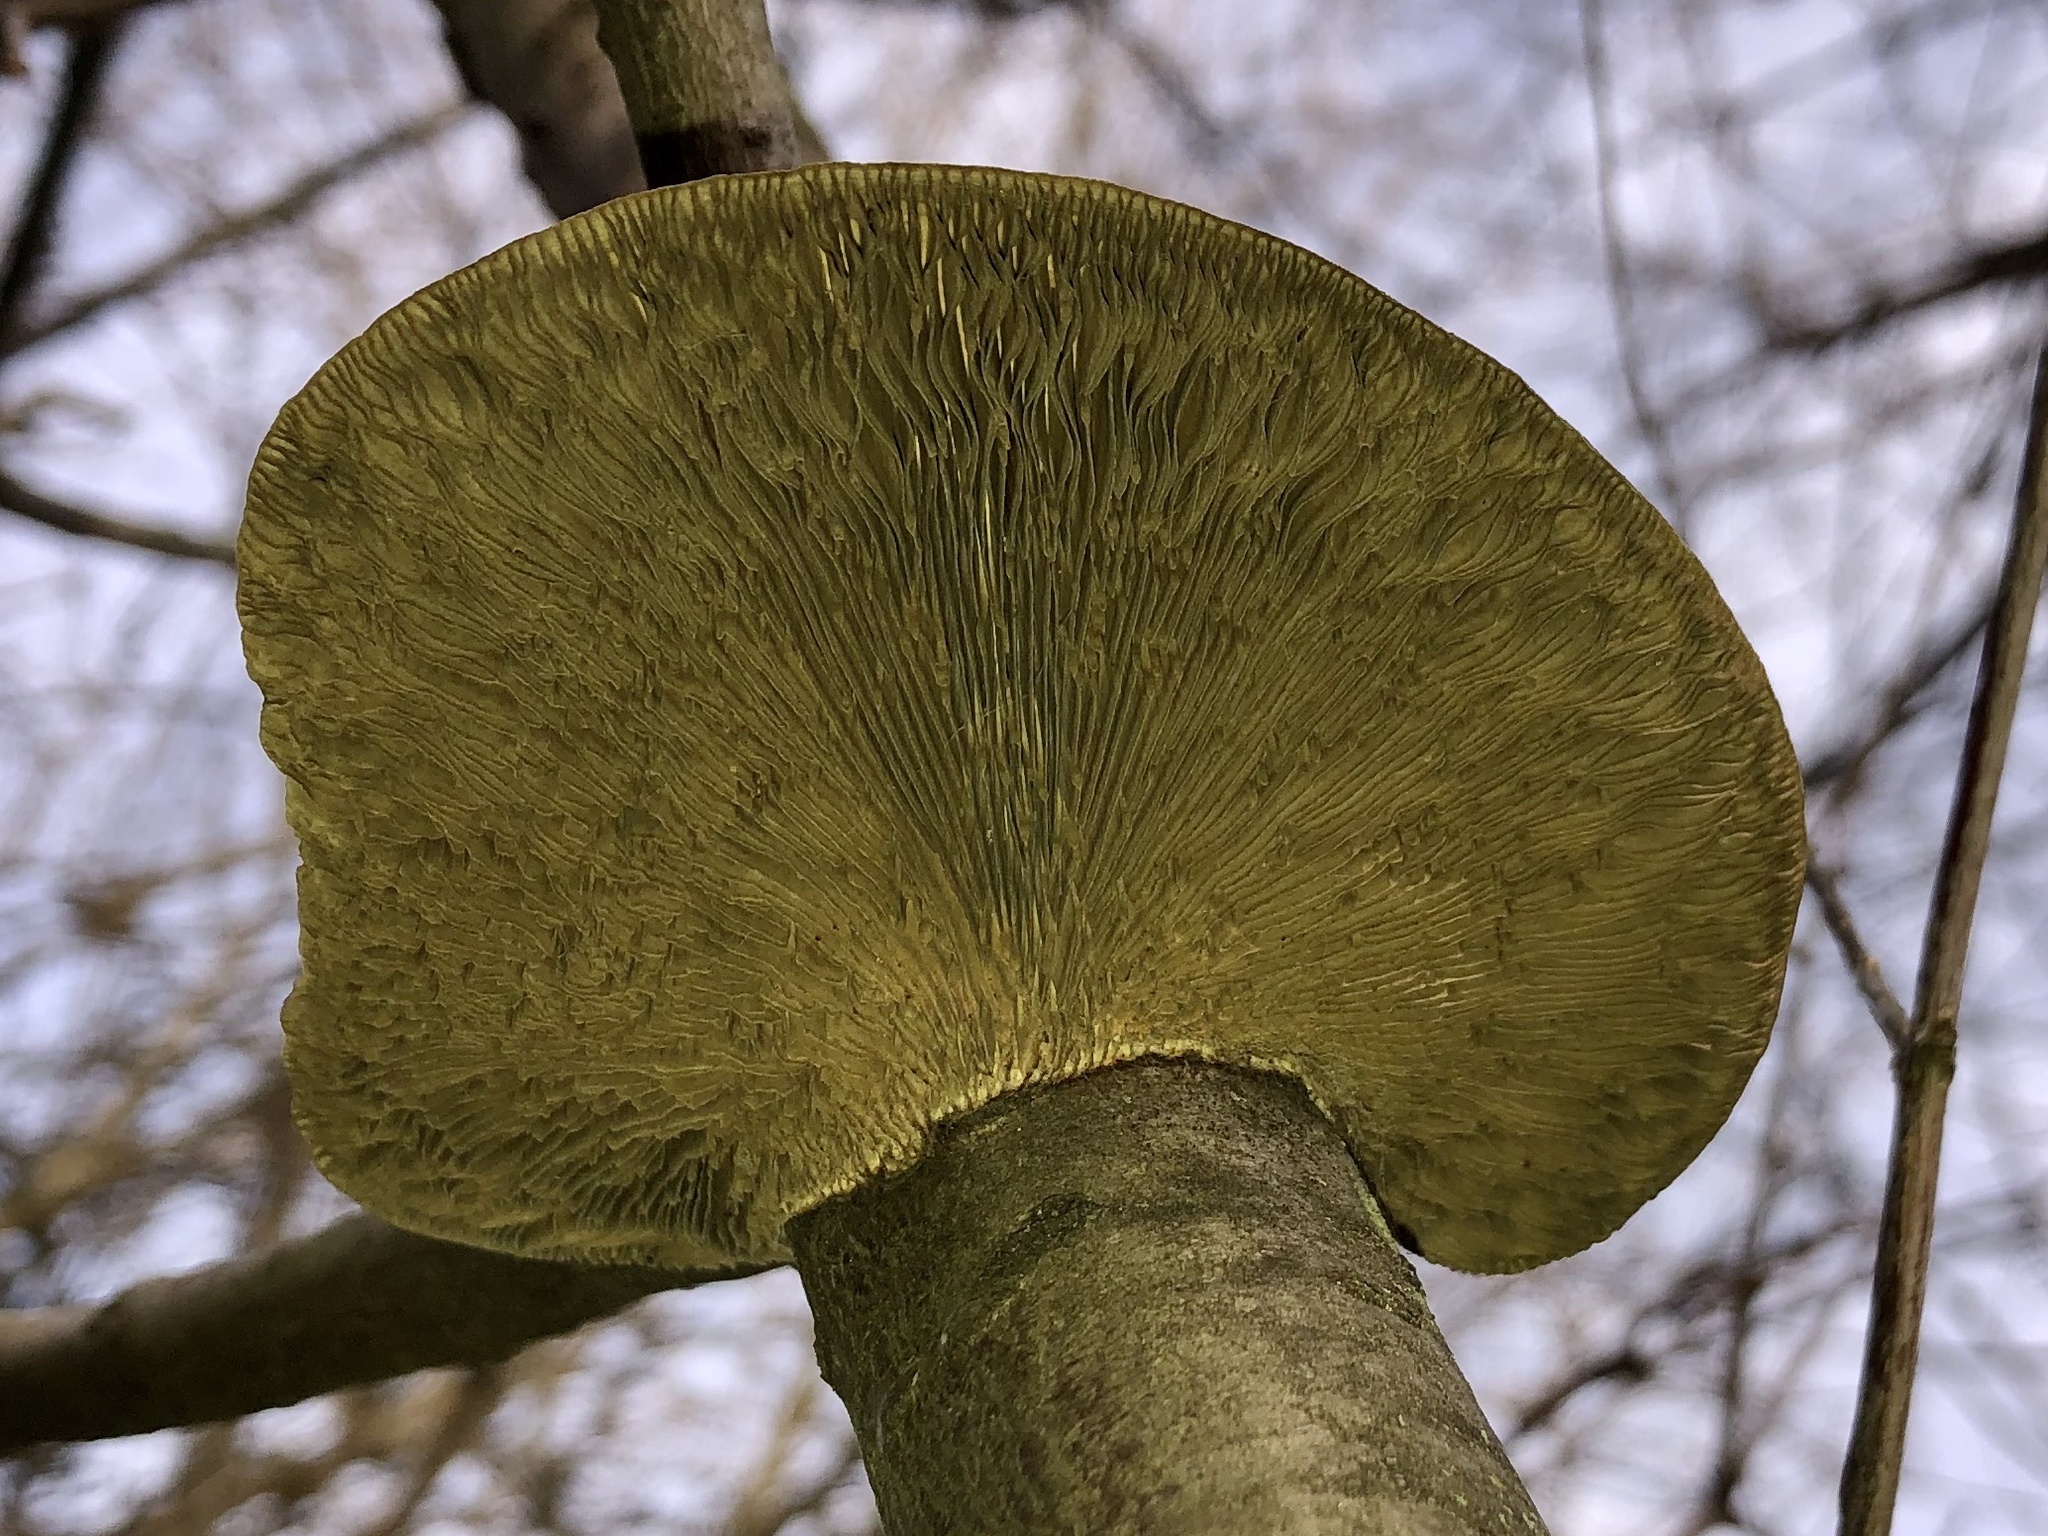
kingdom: Fungi
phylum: Basidiomycota
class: Agaricomycetes
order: Polyporales
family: Polyporaceae
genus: Daedaleopsis
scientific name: Daedaleopsis confragosa
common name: Blushing bracket
